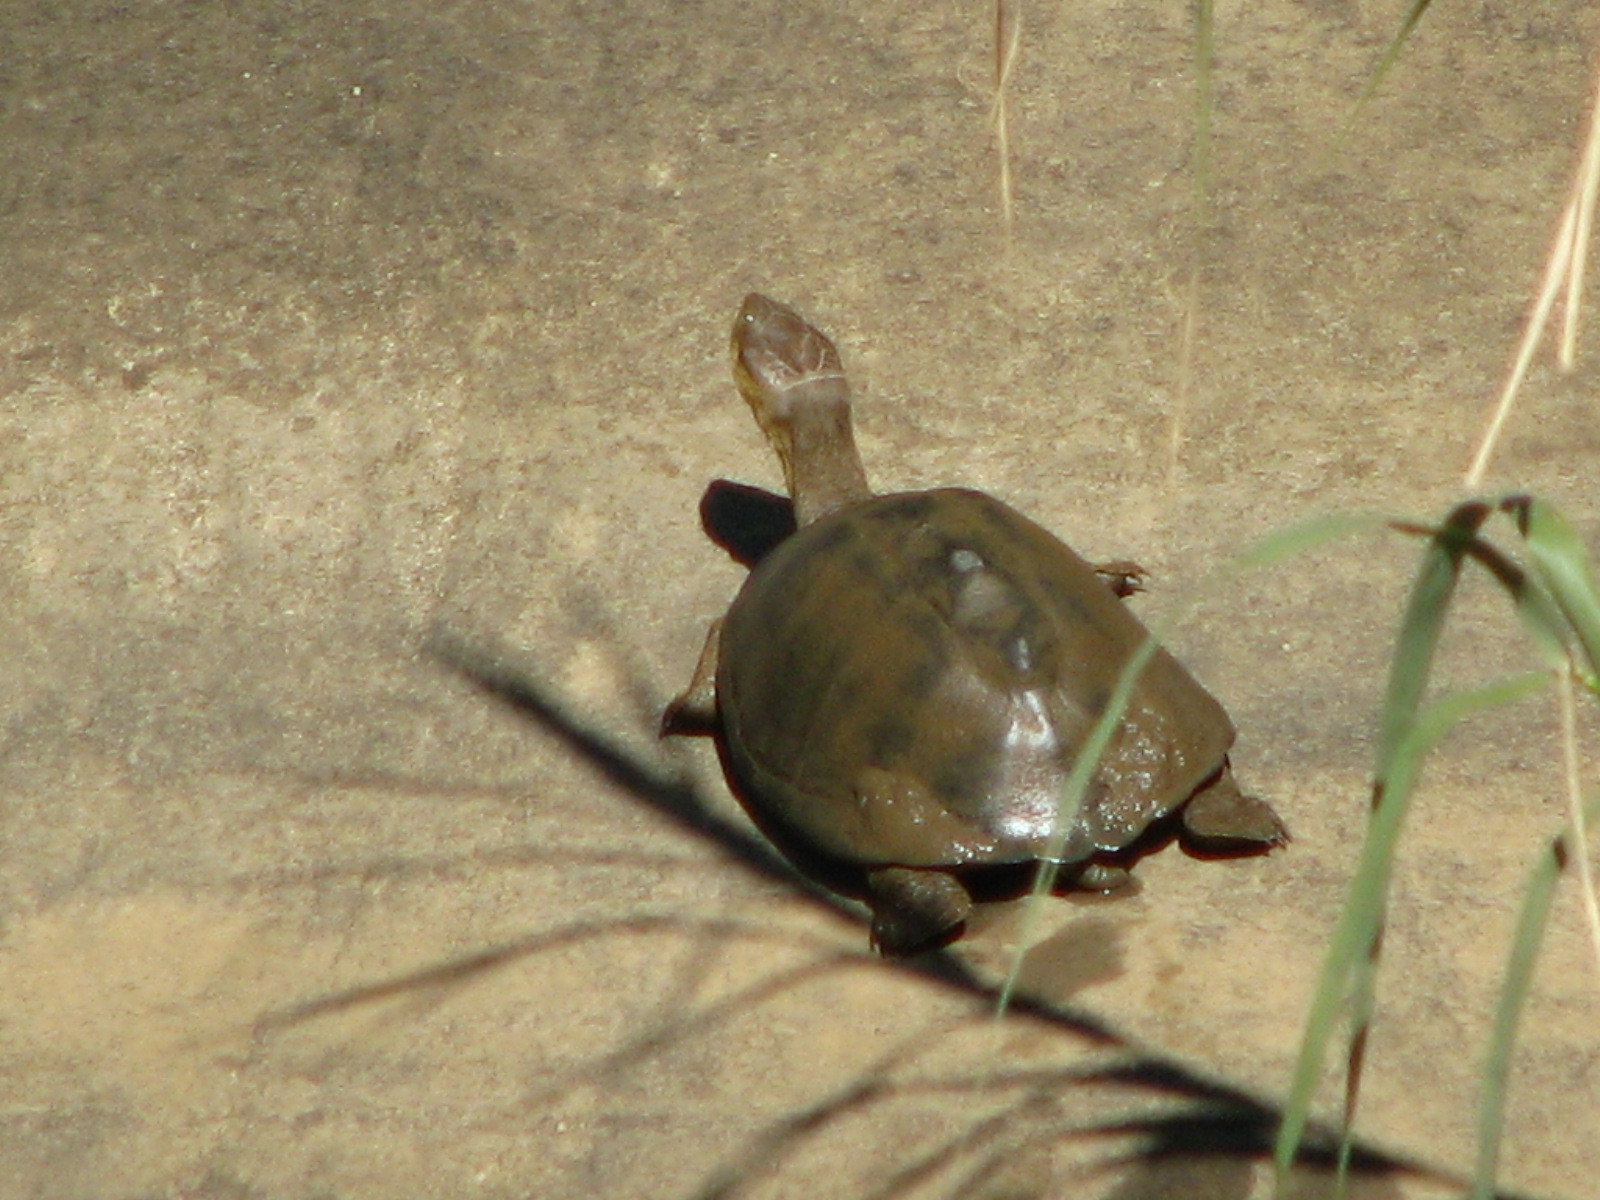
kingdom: Animalia
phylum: Chordata
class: Testudines
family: Pelomedusidae
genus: Pelomedusa
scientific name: Pelomedusa galeata
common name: South african helmeted terrapin
